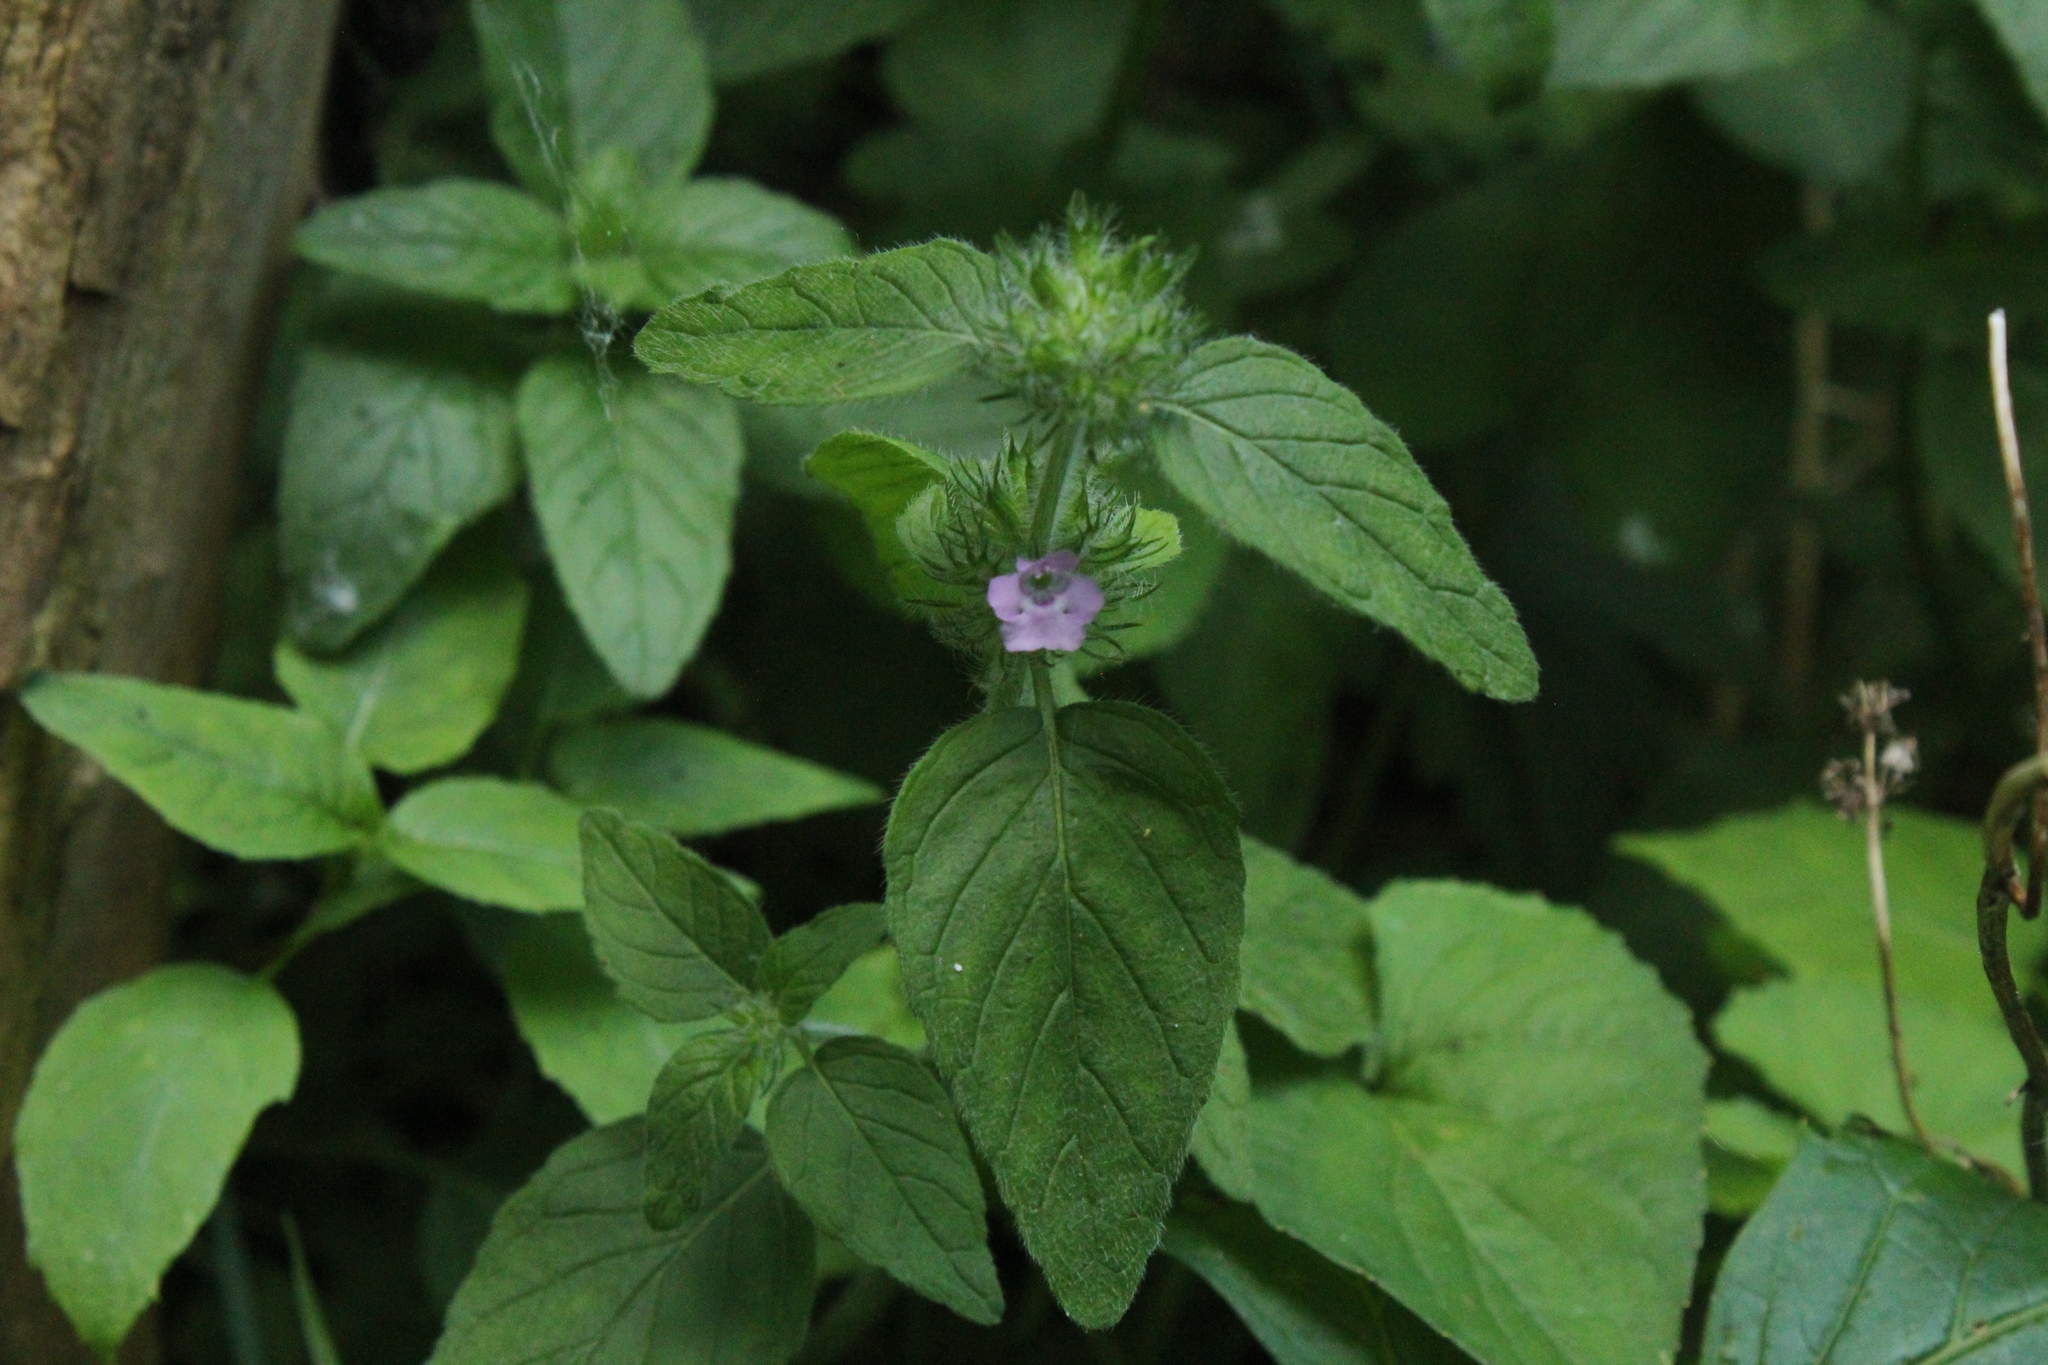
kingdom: Plantae
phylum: Tracheophyta
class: Magnoliopsida
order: Lamiales
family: Lamiaceae
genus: Clinopodium
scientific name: Clinopodium vulgare
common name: Wild basil
